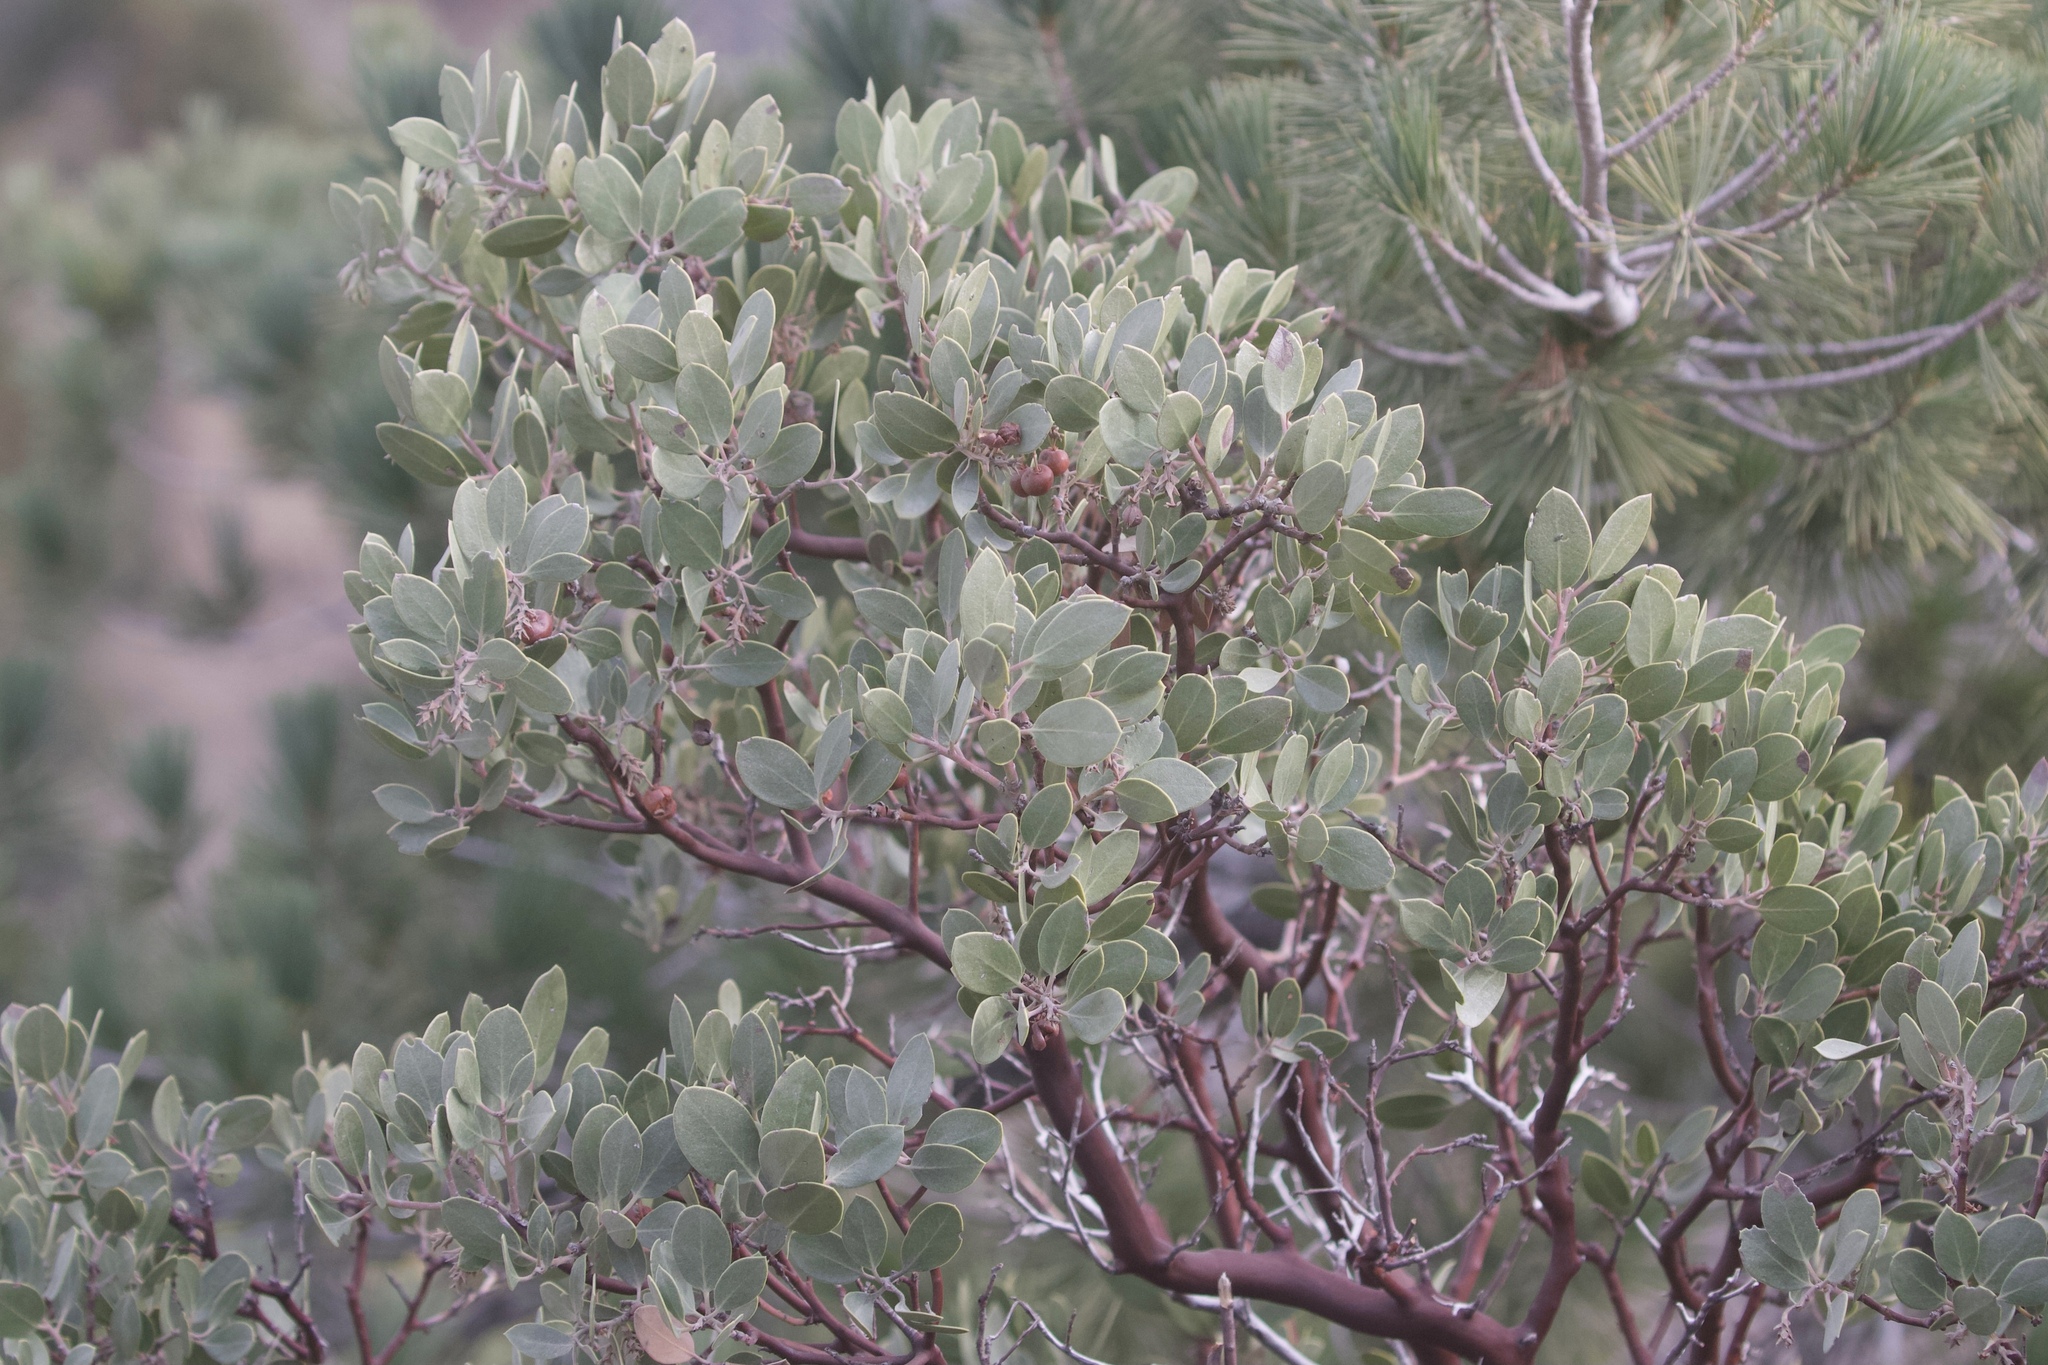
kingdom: Plantae
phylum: Tracheophyta
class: Magnoliopsida
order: Ericales
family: Ericaceae
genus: Arctostaphylos
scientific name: Arctostaphylos glandulosa
